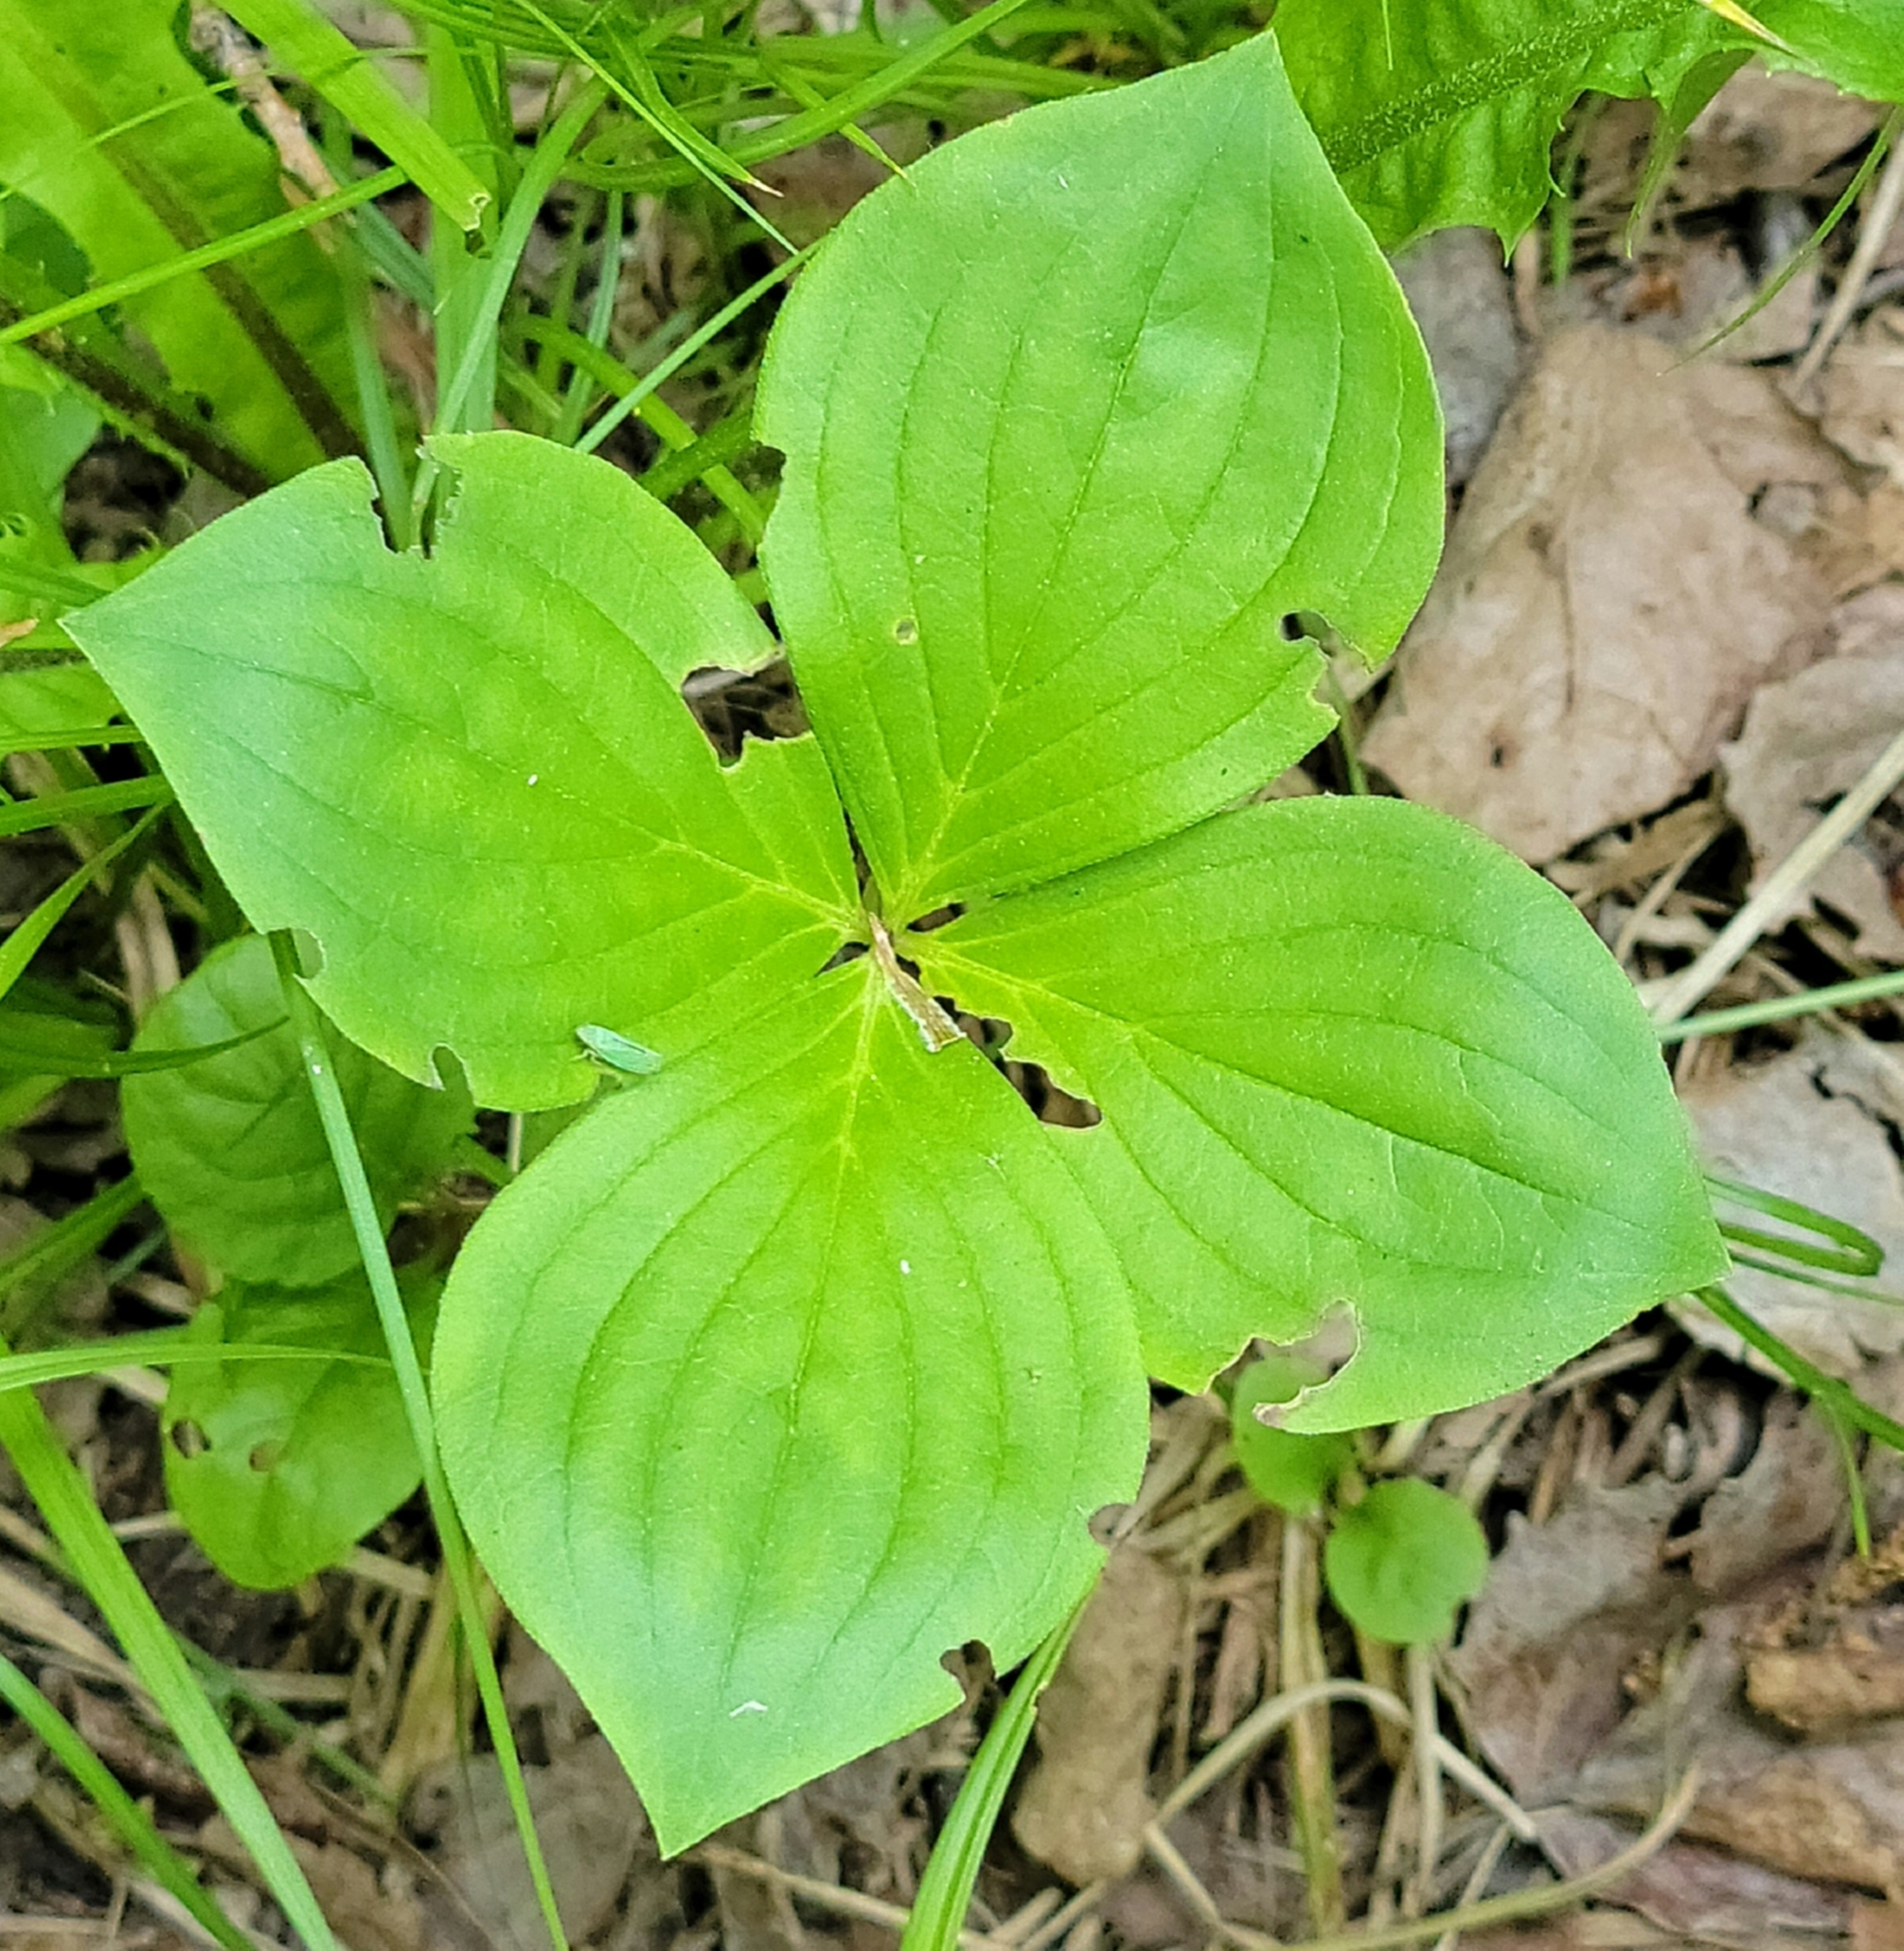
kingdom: Plantae
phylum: Tracheophyta
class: Magnoliopsida
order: Cornales
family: Cornaceae
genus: Cornus
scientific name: Cornus canadensis
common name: Creeping dogwood
